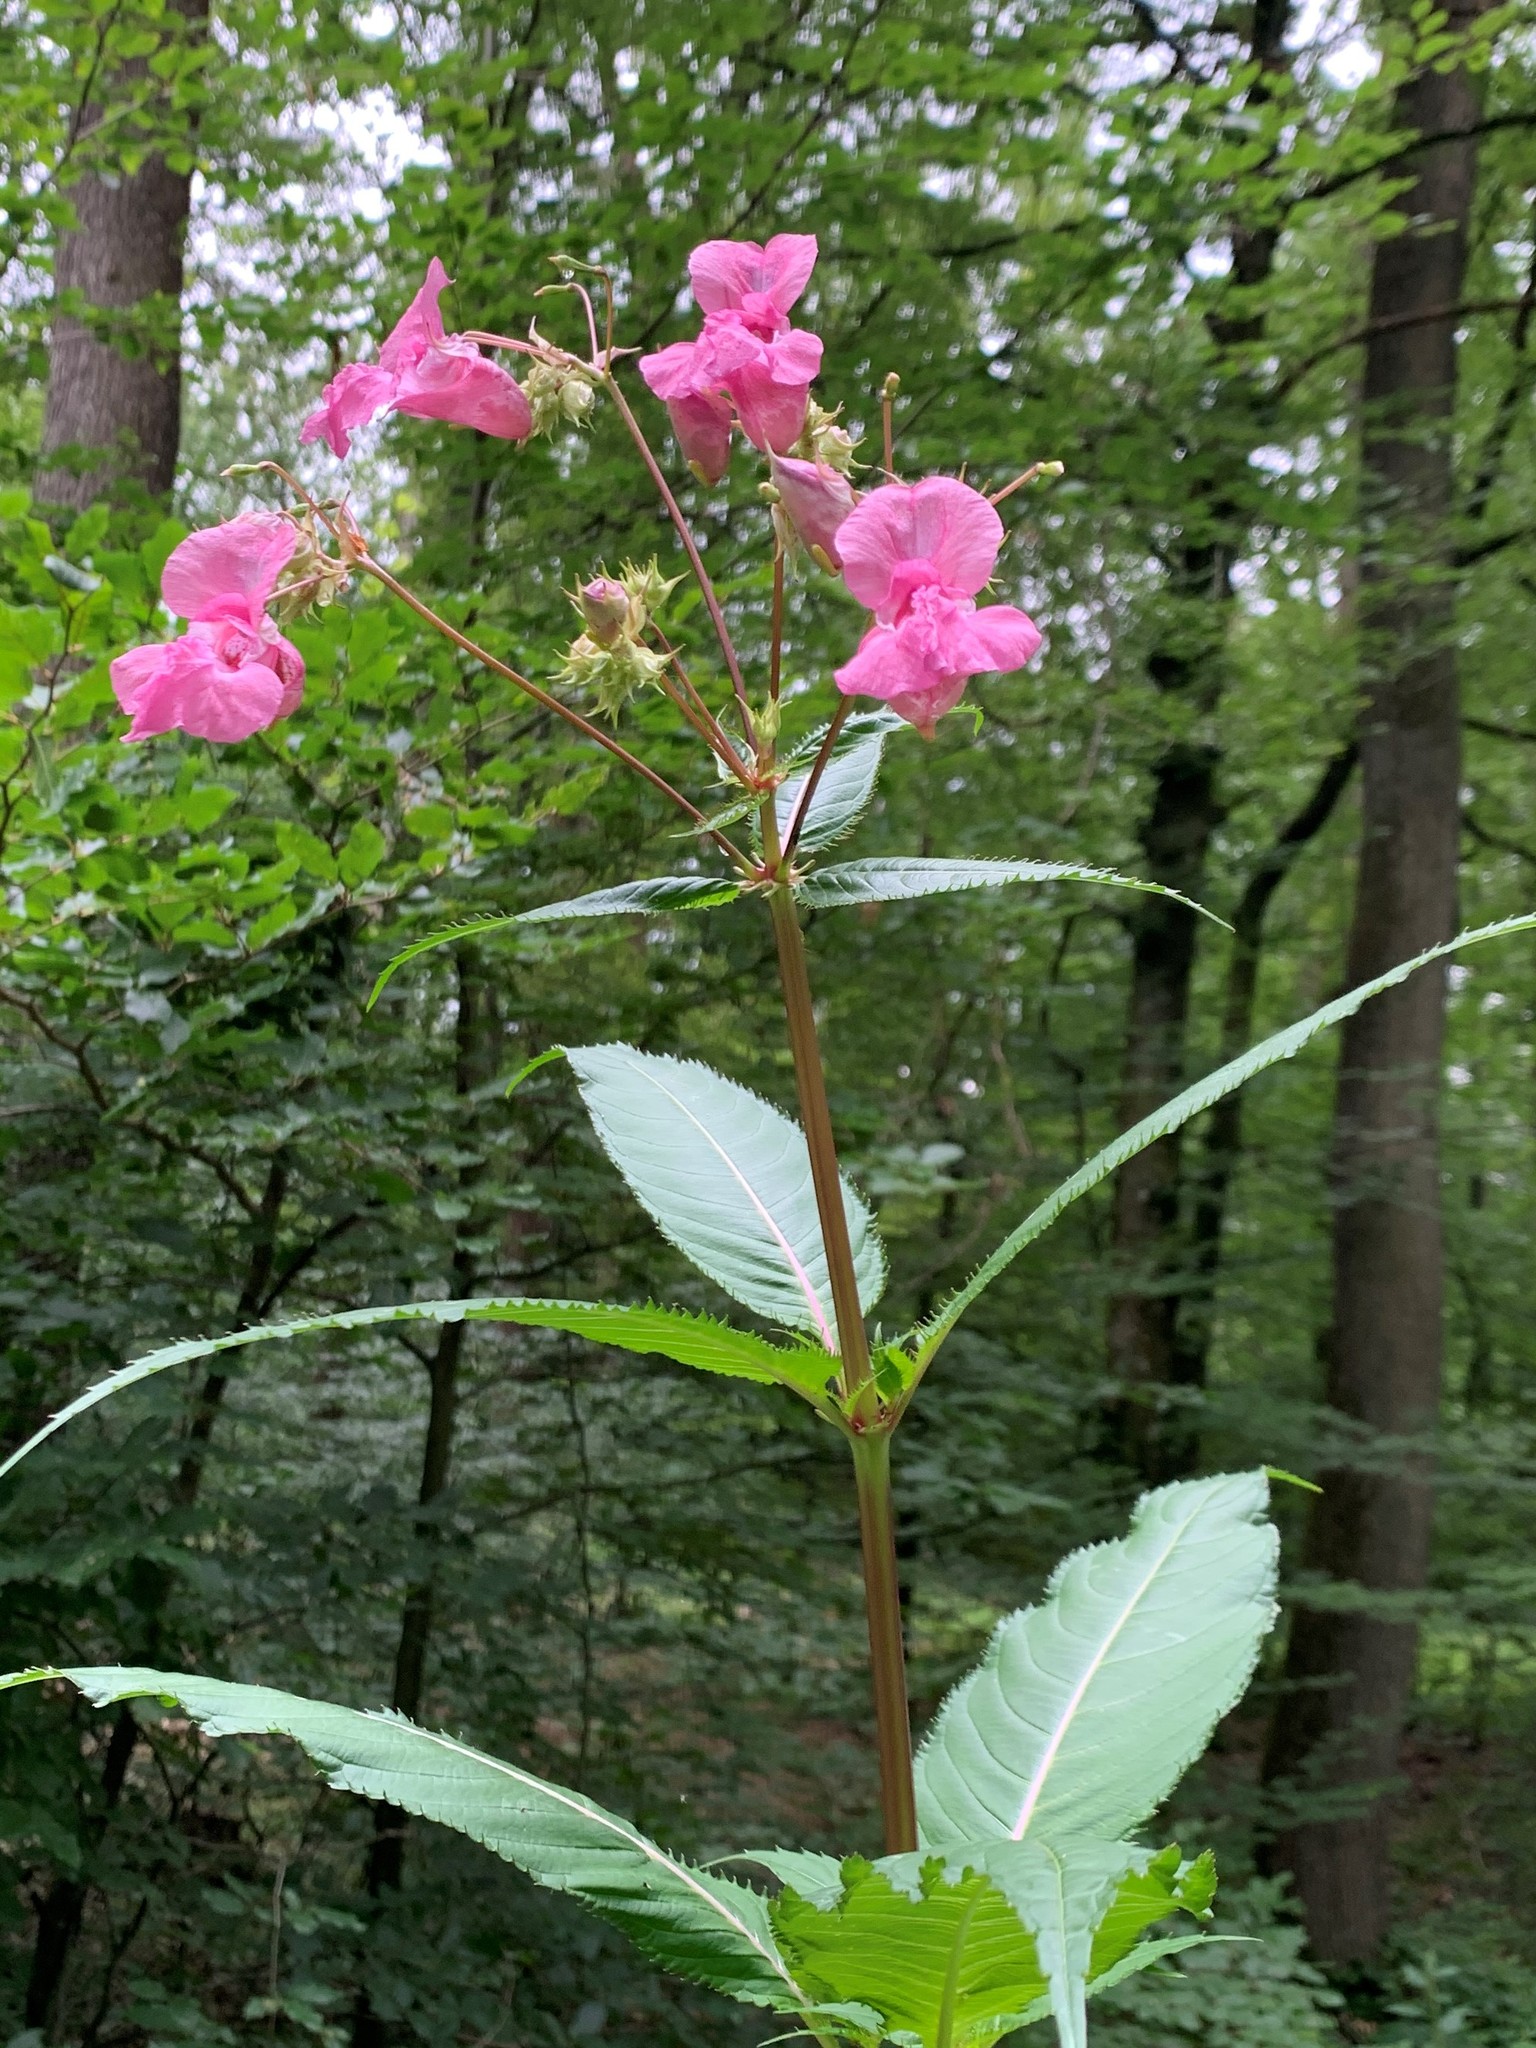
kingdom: Plantae
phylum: Tracheophyta
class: Magnoliopsida
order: Ericales
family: Balsaminaceae
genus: Impatiens
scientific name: Impatiens glandulifera
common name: Himalayan balsam
